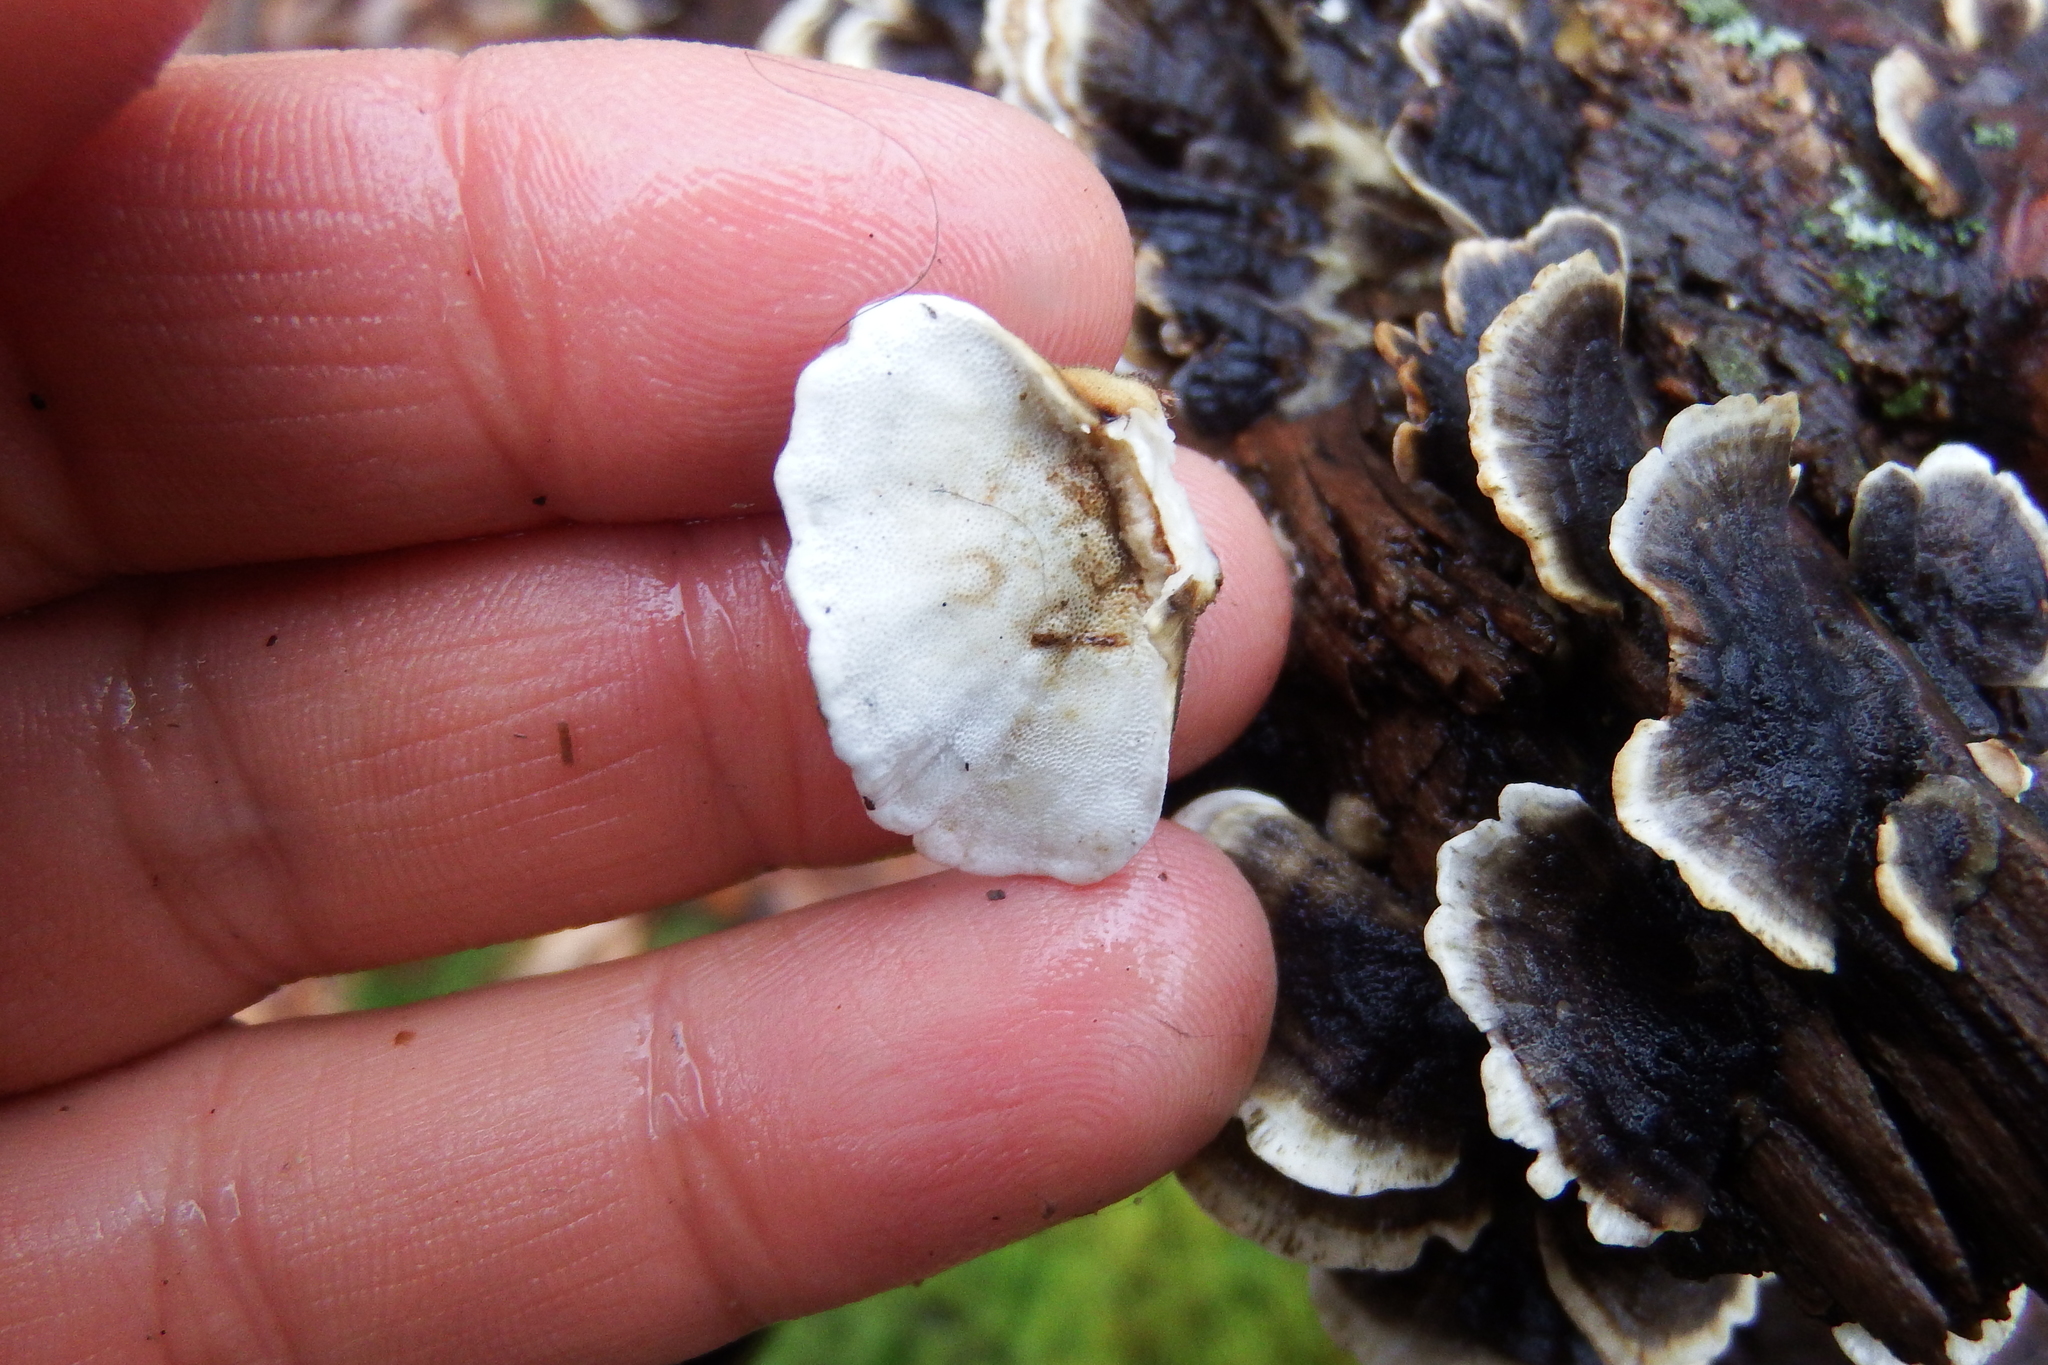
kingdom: Fungi
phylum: Basidiomycota
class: Agaricomycetes
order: Polyporales
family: Polyporaceae
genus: Trametes
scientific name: Trametes versicolor
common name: Turkeytail
